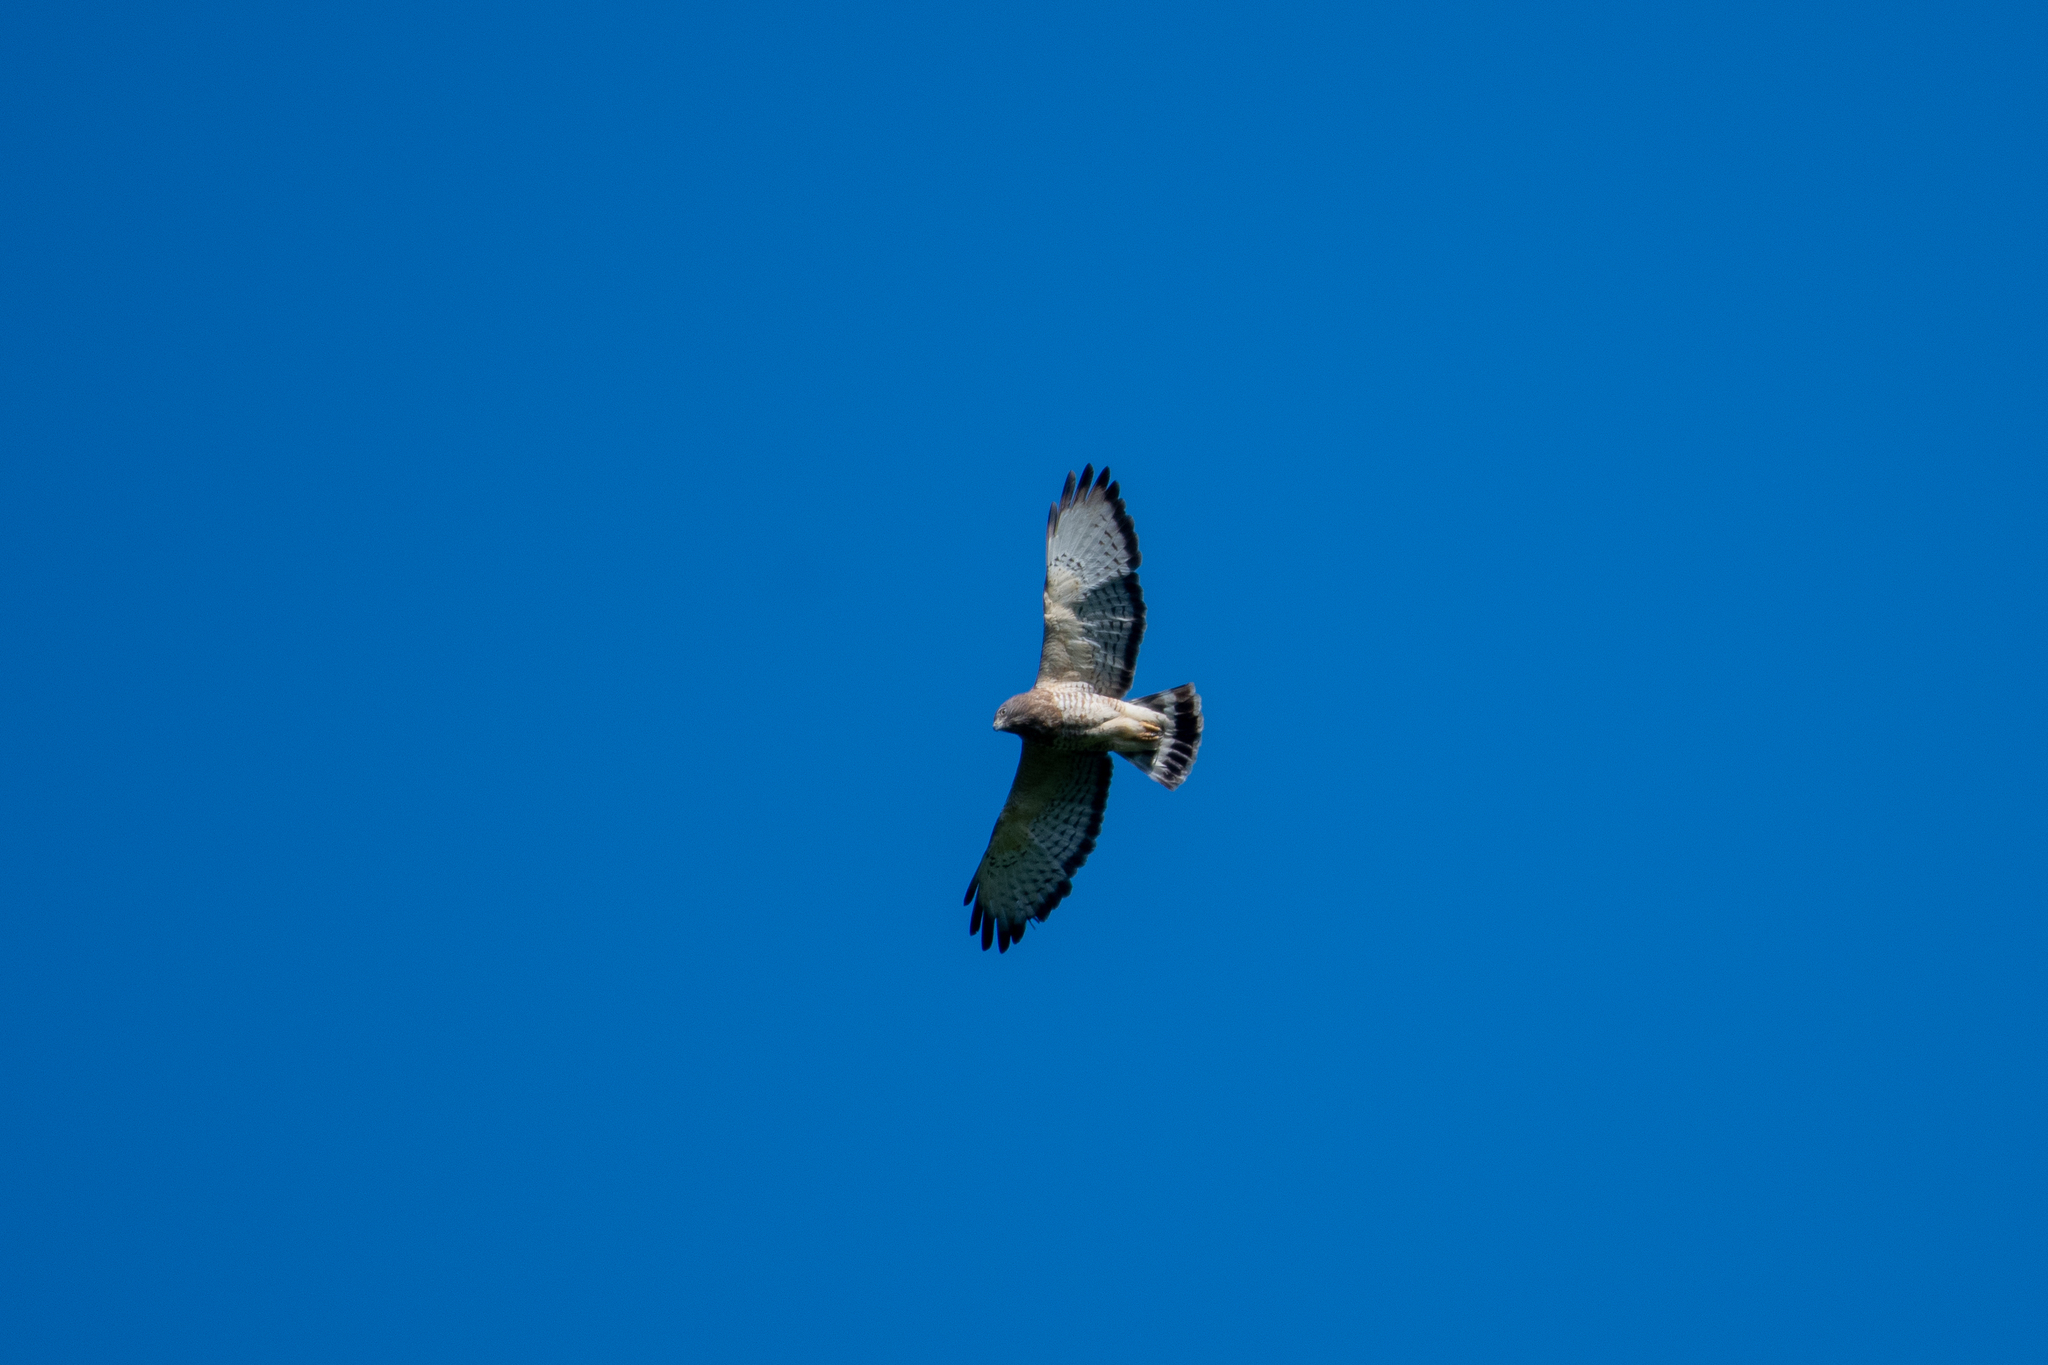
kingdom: Animalia
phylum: Chordata
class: Aves
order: Accipitriformes
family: Accipitridae
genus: Buteo
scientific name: Buteo platypterus
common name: Broad-winged hawk
